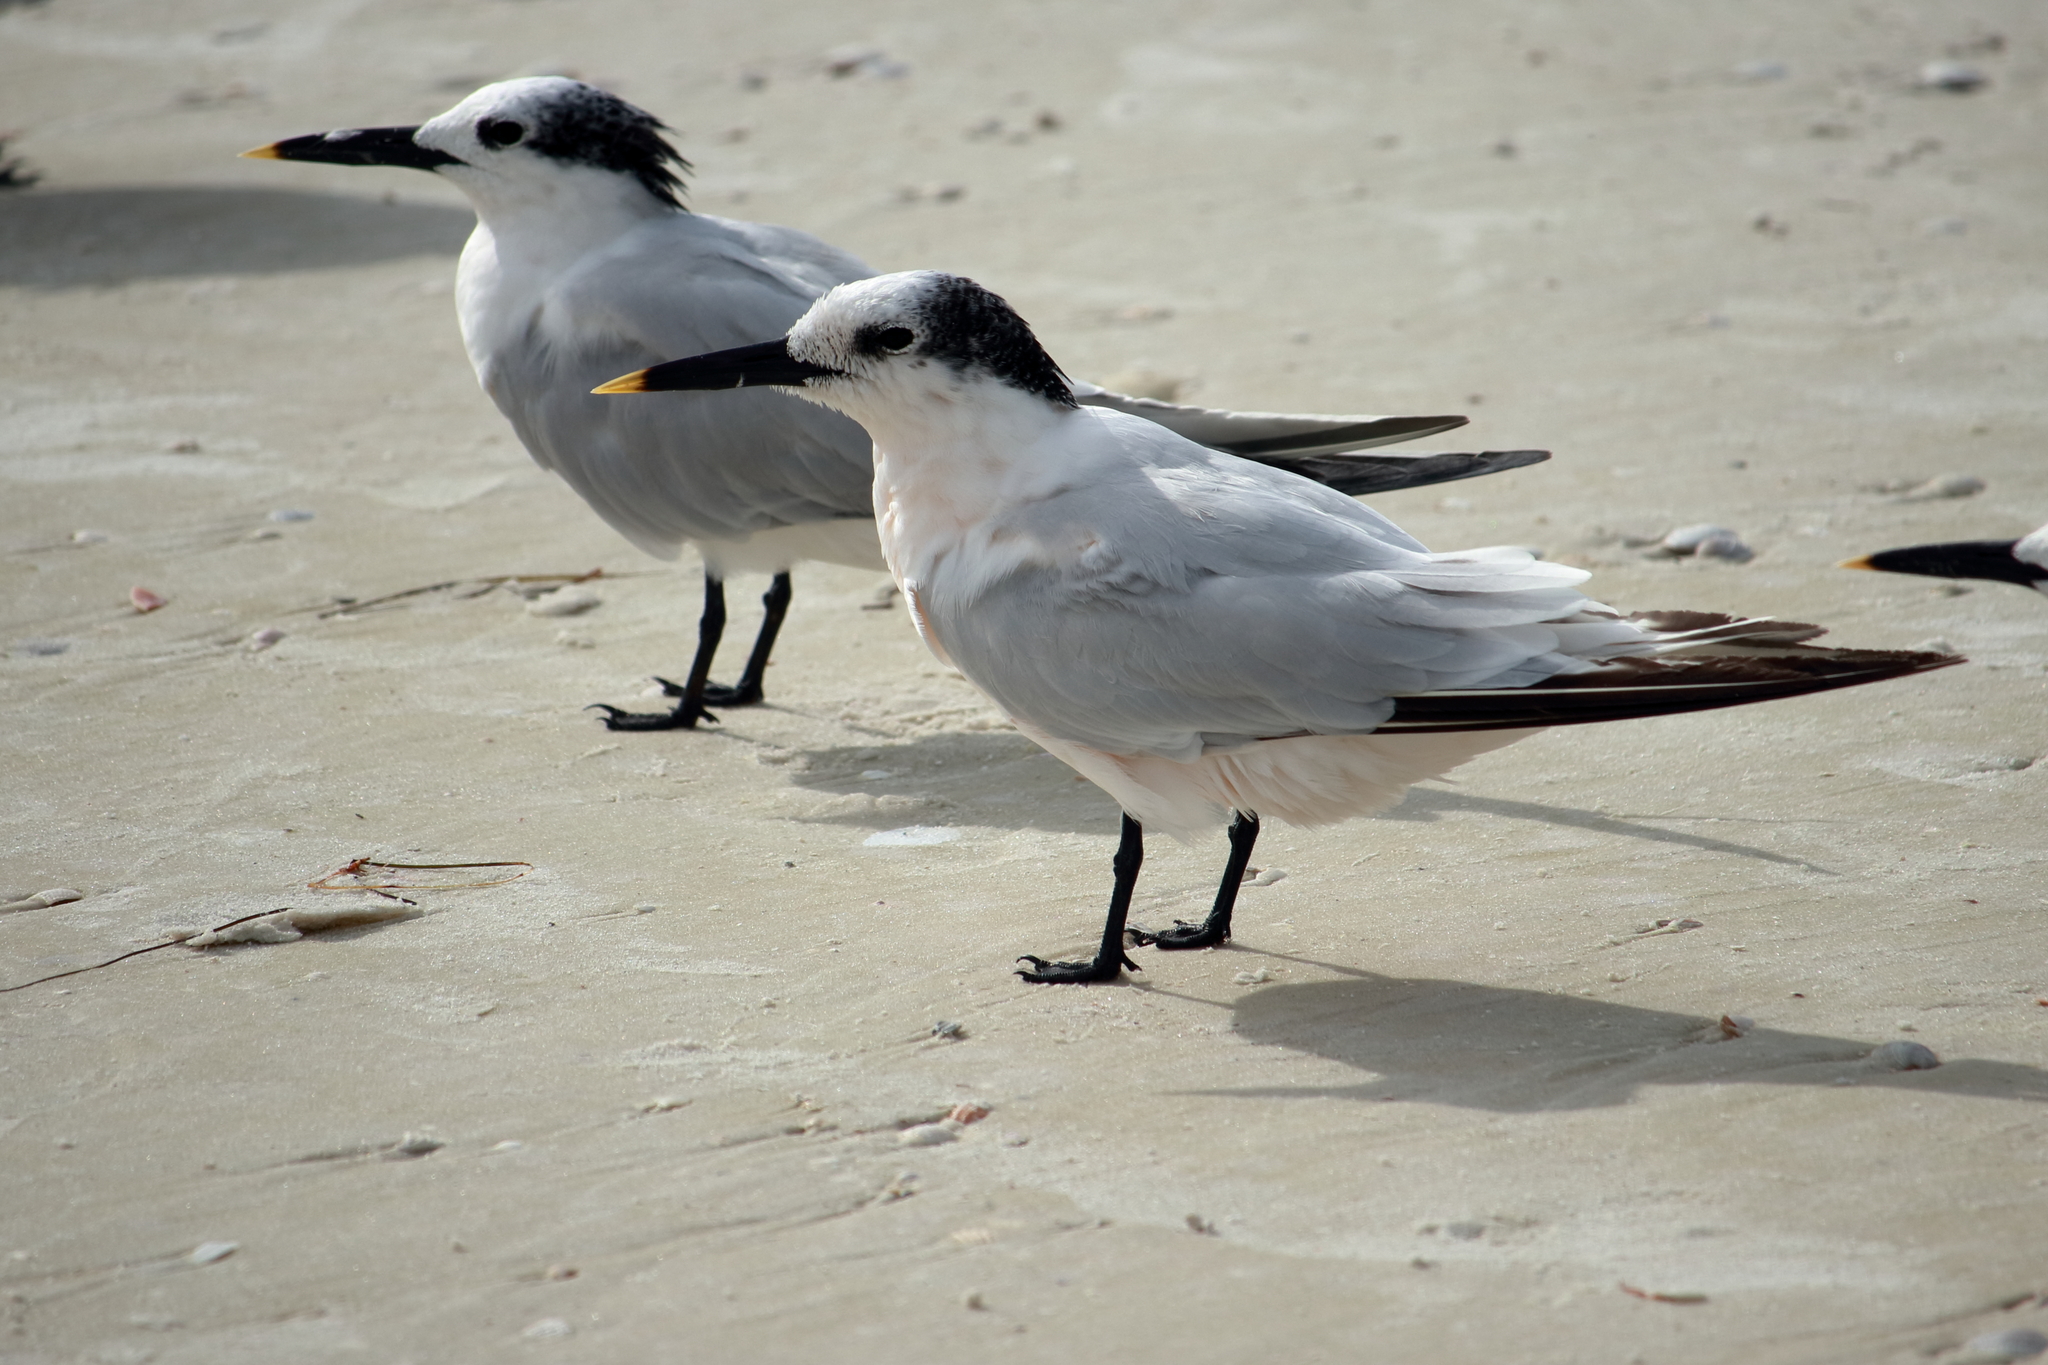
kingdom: Animalia
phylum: Chordata
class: Aves
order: Charadriiformes
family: Laridae
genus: Thalasseus
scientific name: Thalasseus sandvicensis
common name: Sandwich tern
